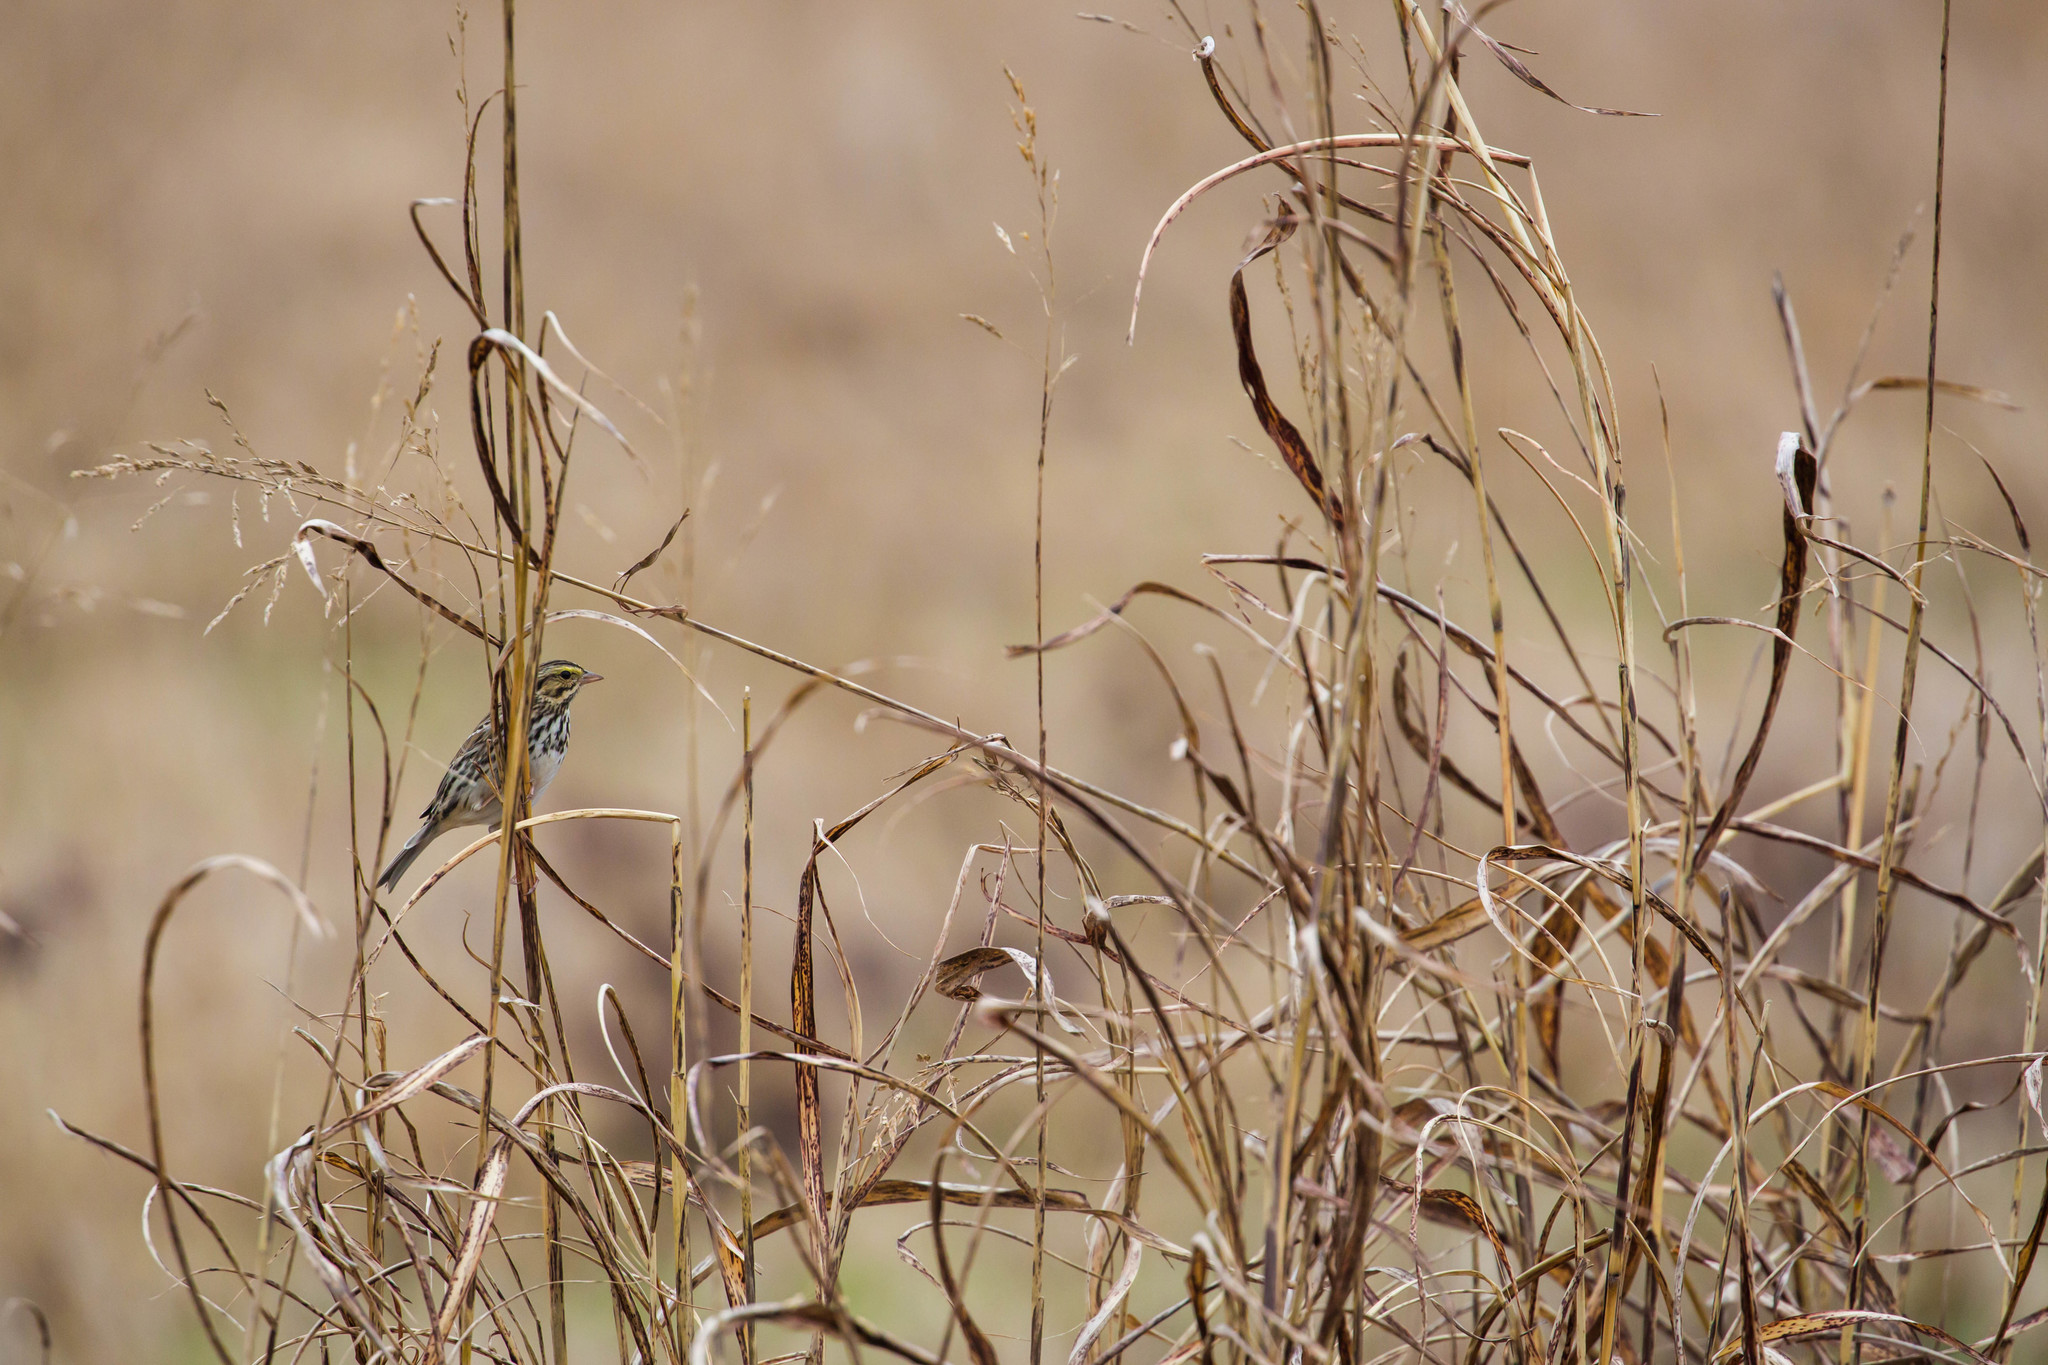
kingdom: Animalia
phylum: Chordata
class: Aves
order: Passeriformes
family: Passerellidae
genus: Passerculus
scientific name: Passerculus sandwichensis
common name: Savannah sparrow
